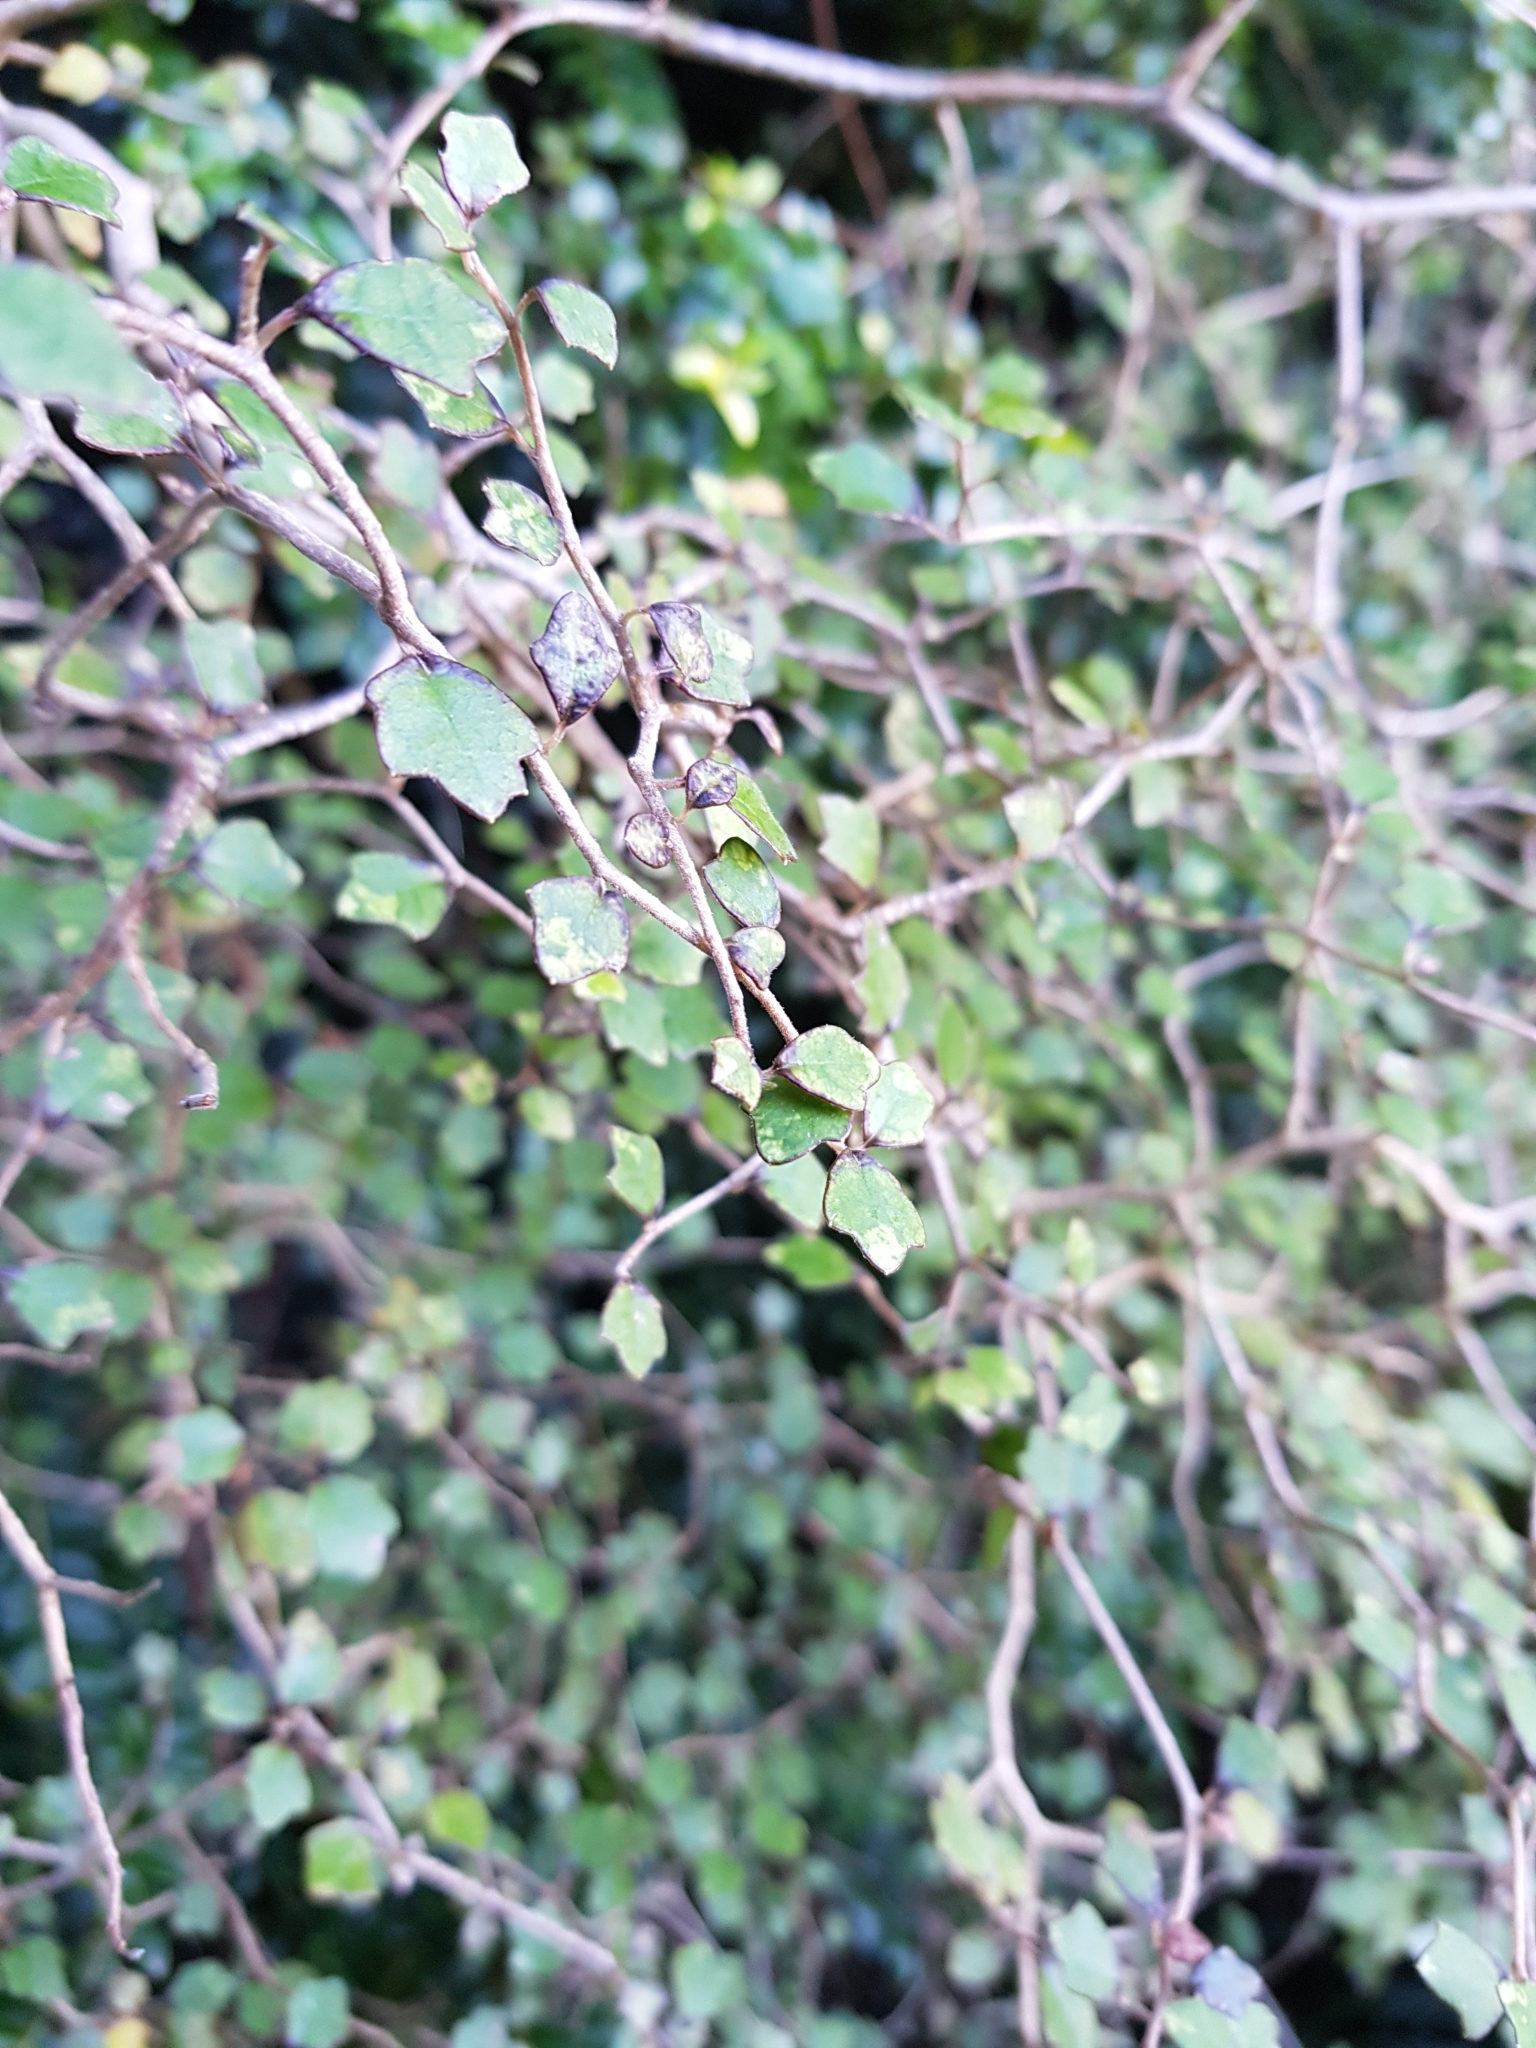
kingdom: Plantae
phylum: Tracheophyta
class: Magnoliopsida
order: Apiales
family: Pennantiaceae
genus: Pennantia
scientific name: Pennantia corymbosa
